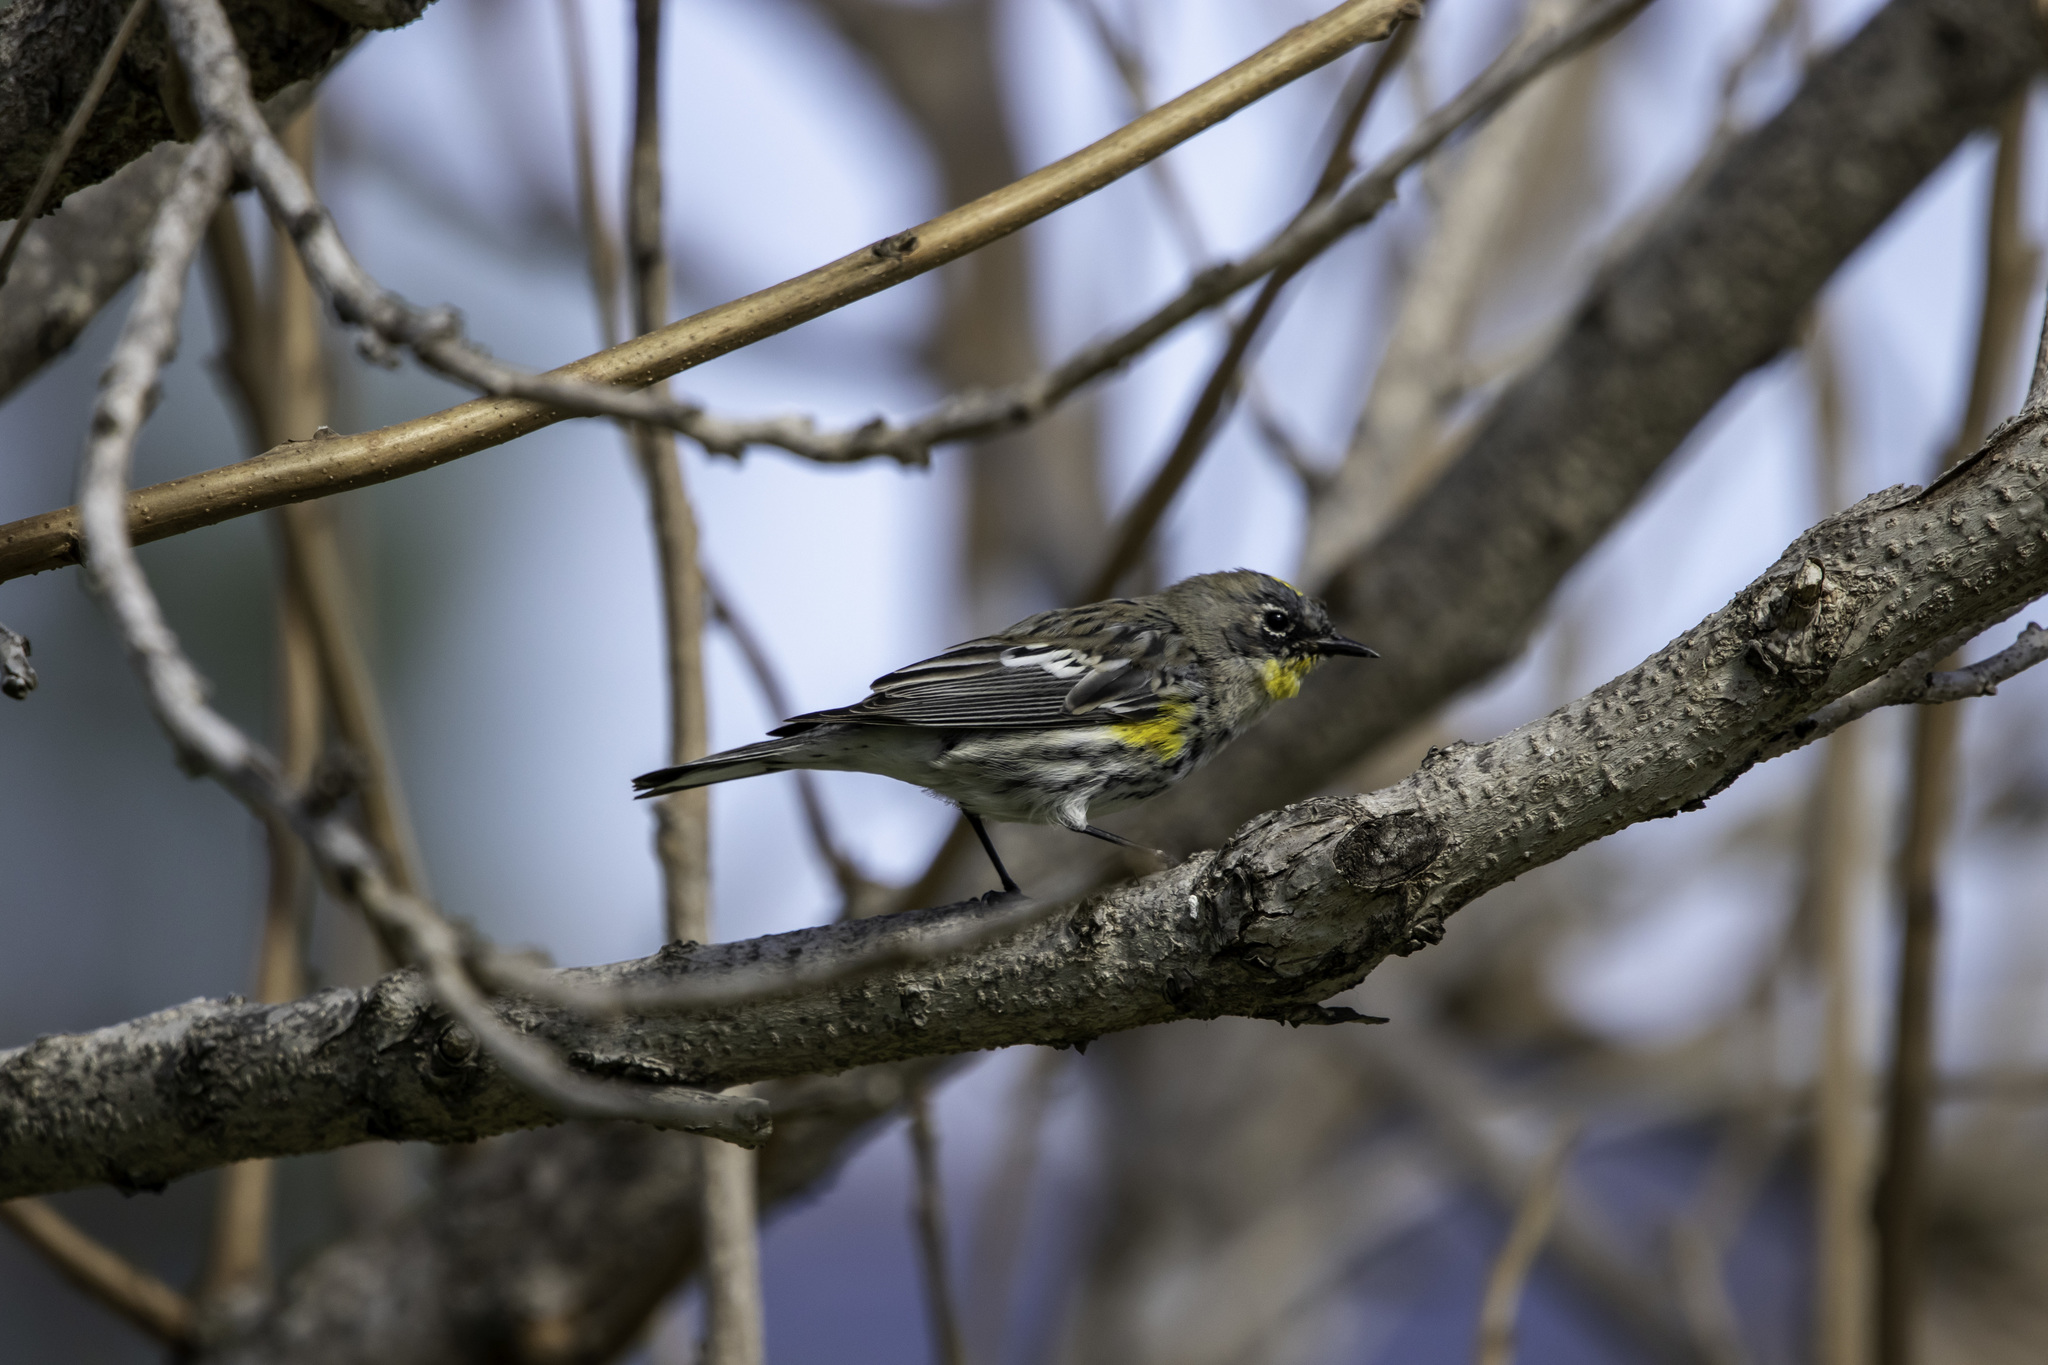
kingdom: Animalia
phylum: Chordata
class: Aves
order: Passeriformes
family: Parulidae
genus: Setophaga
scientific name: Setophaga coronata
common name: Myrtle warbler
